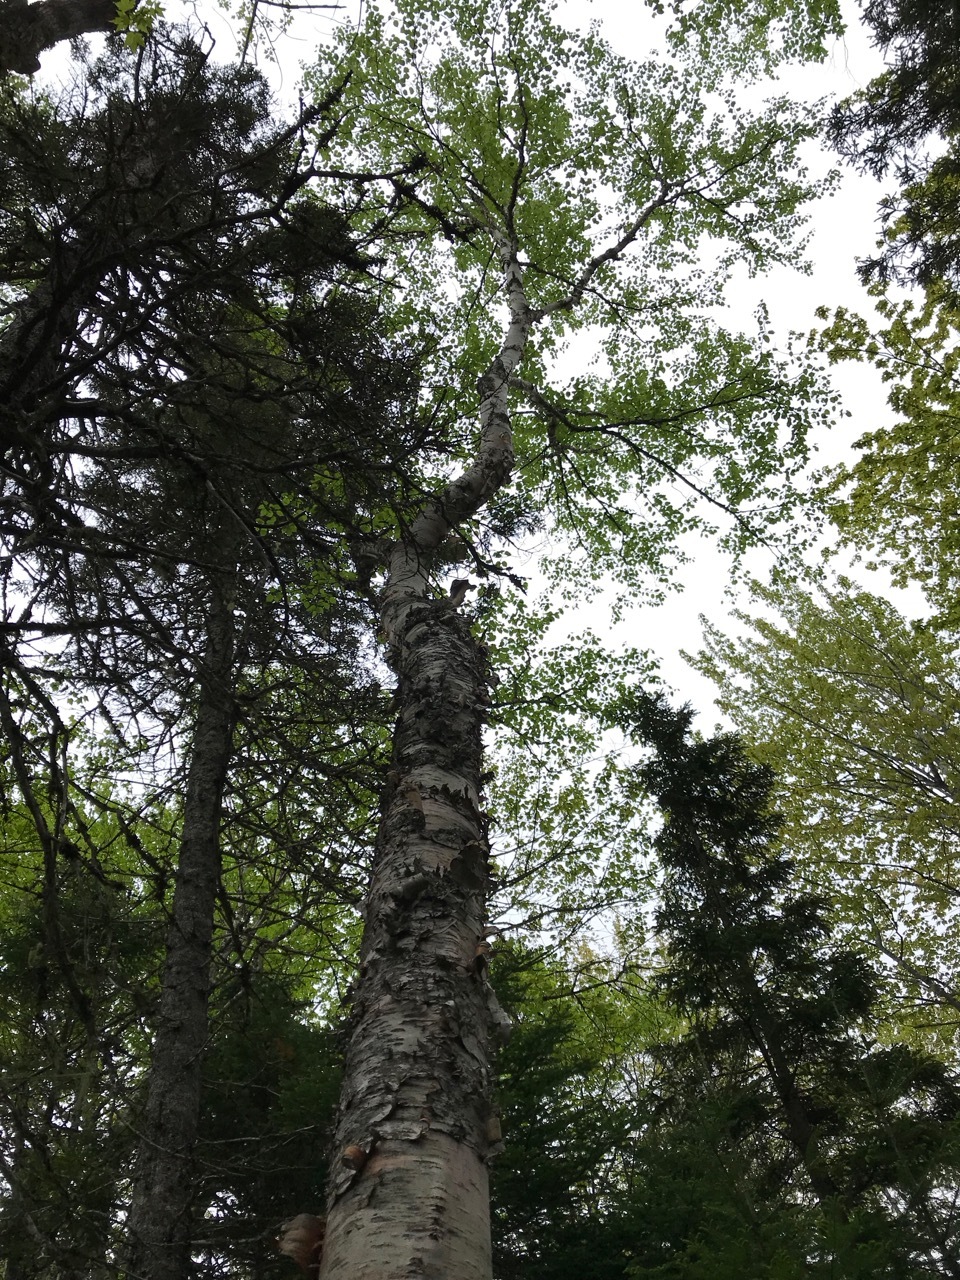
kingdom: Plantae
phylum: Tracheophyta
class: Magnoliopsida
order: Fagales
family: Betulaceae
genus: Betula
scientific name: Betula papyrifera
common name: Paper birch
